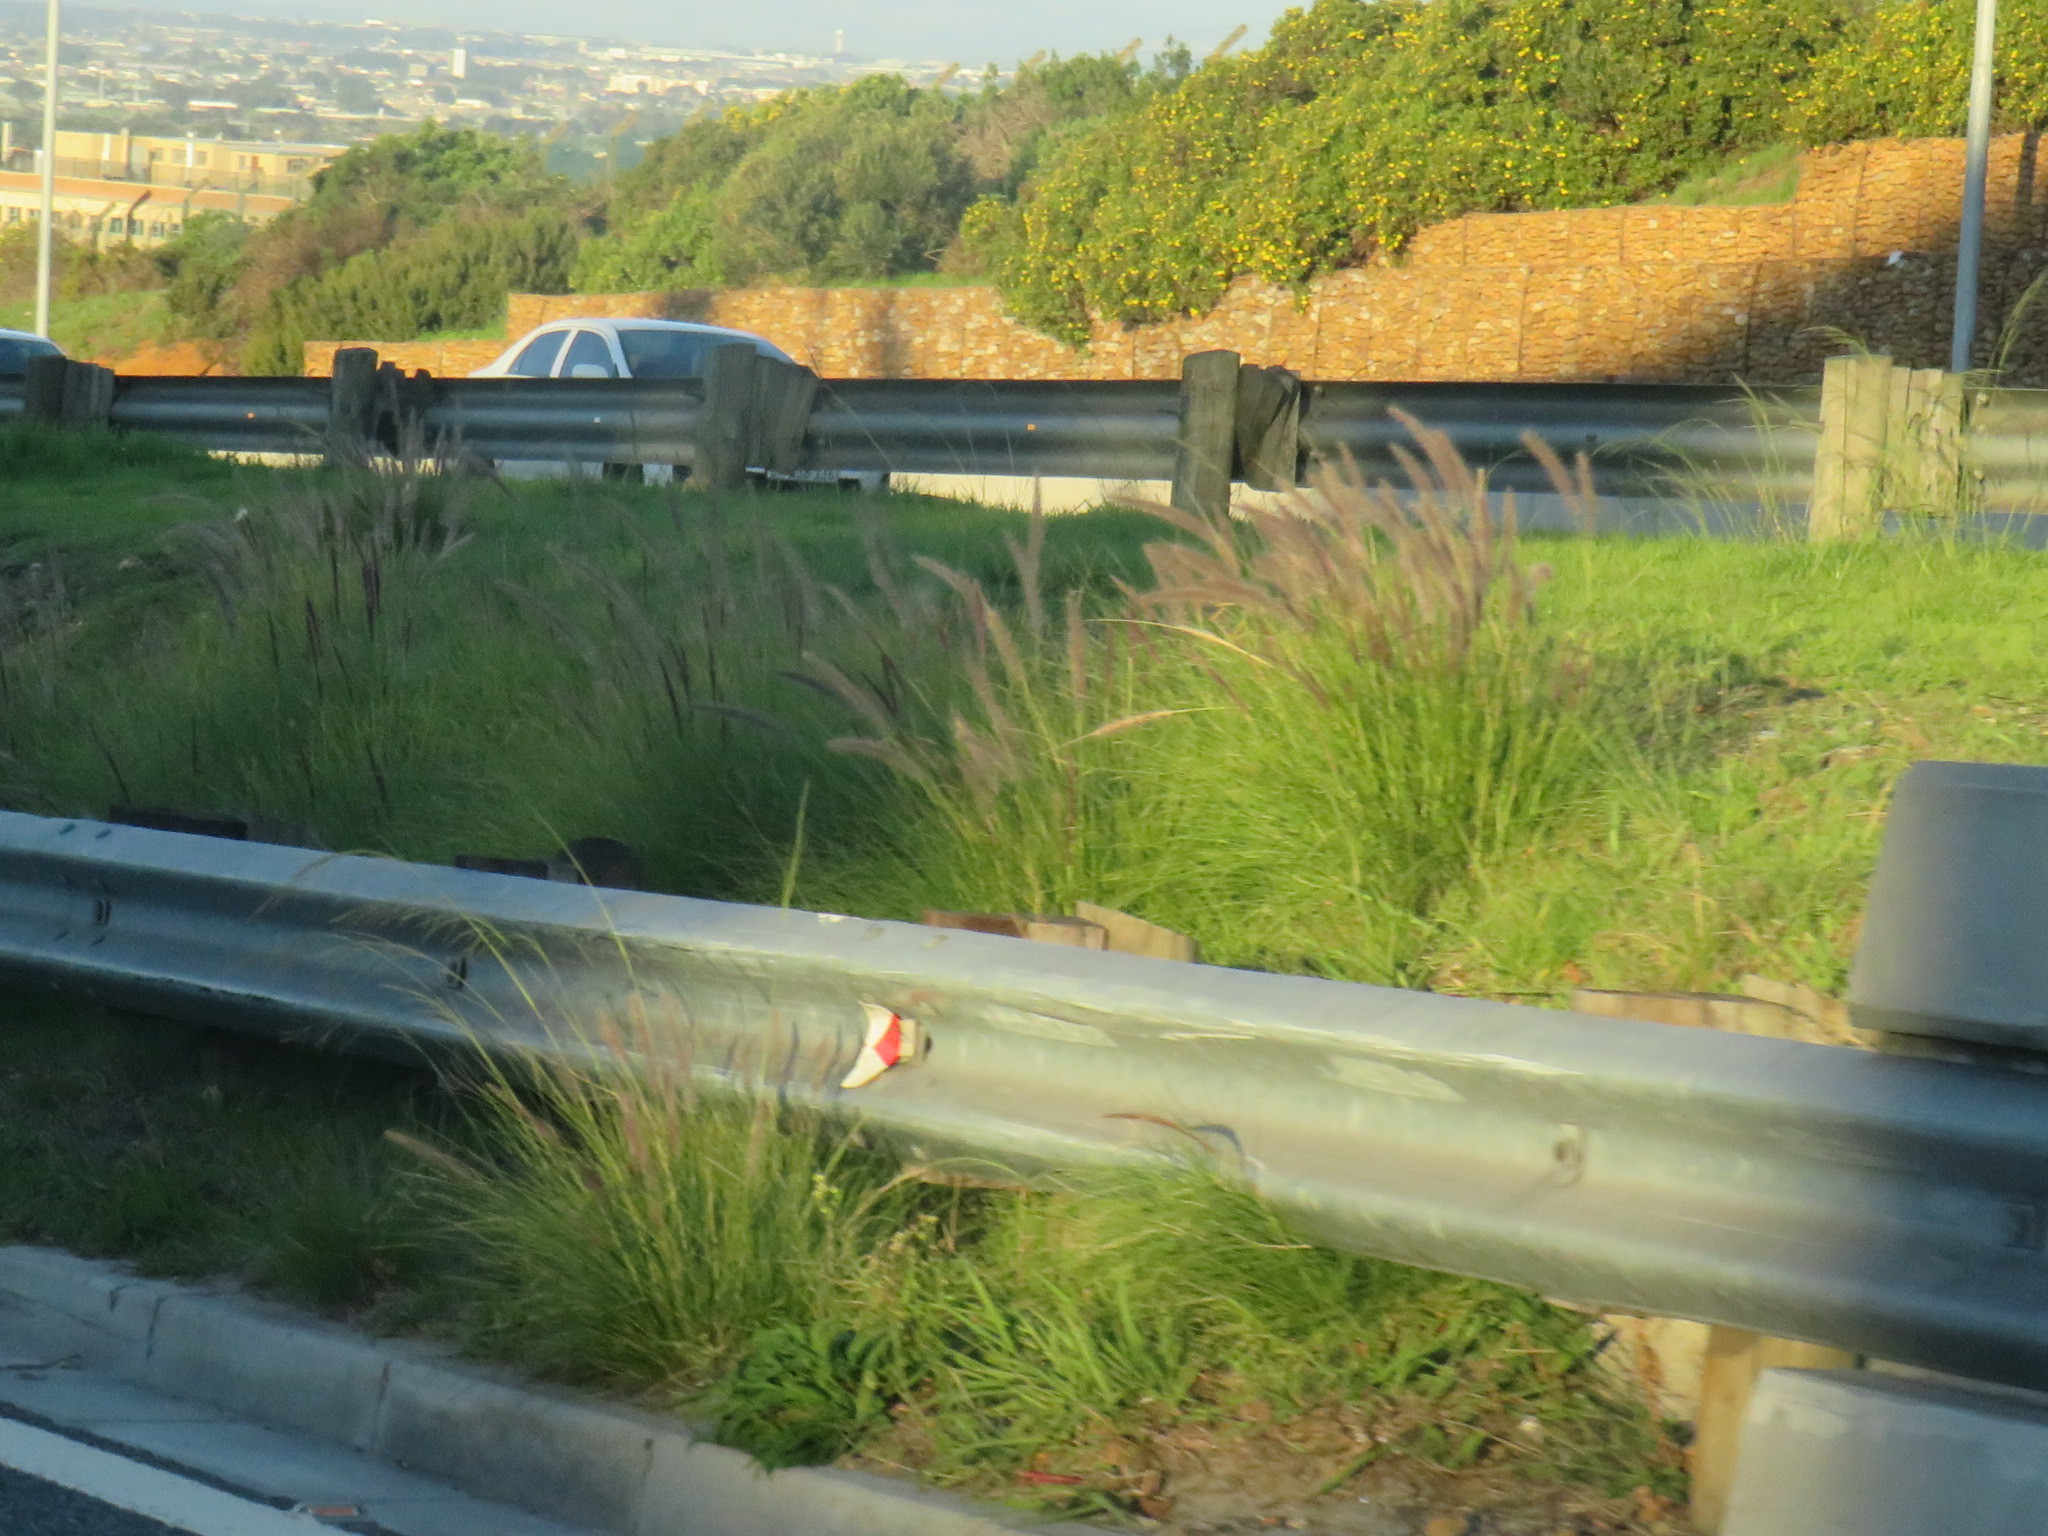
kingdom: Plantae
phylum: Tracheophyta
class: Liliopsida
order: Poales
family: Poaceae
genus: Cenchrus
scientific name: Cenchrus setaceus
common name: Crimson fountaingrass
